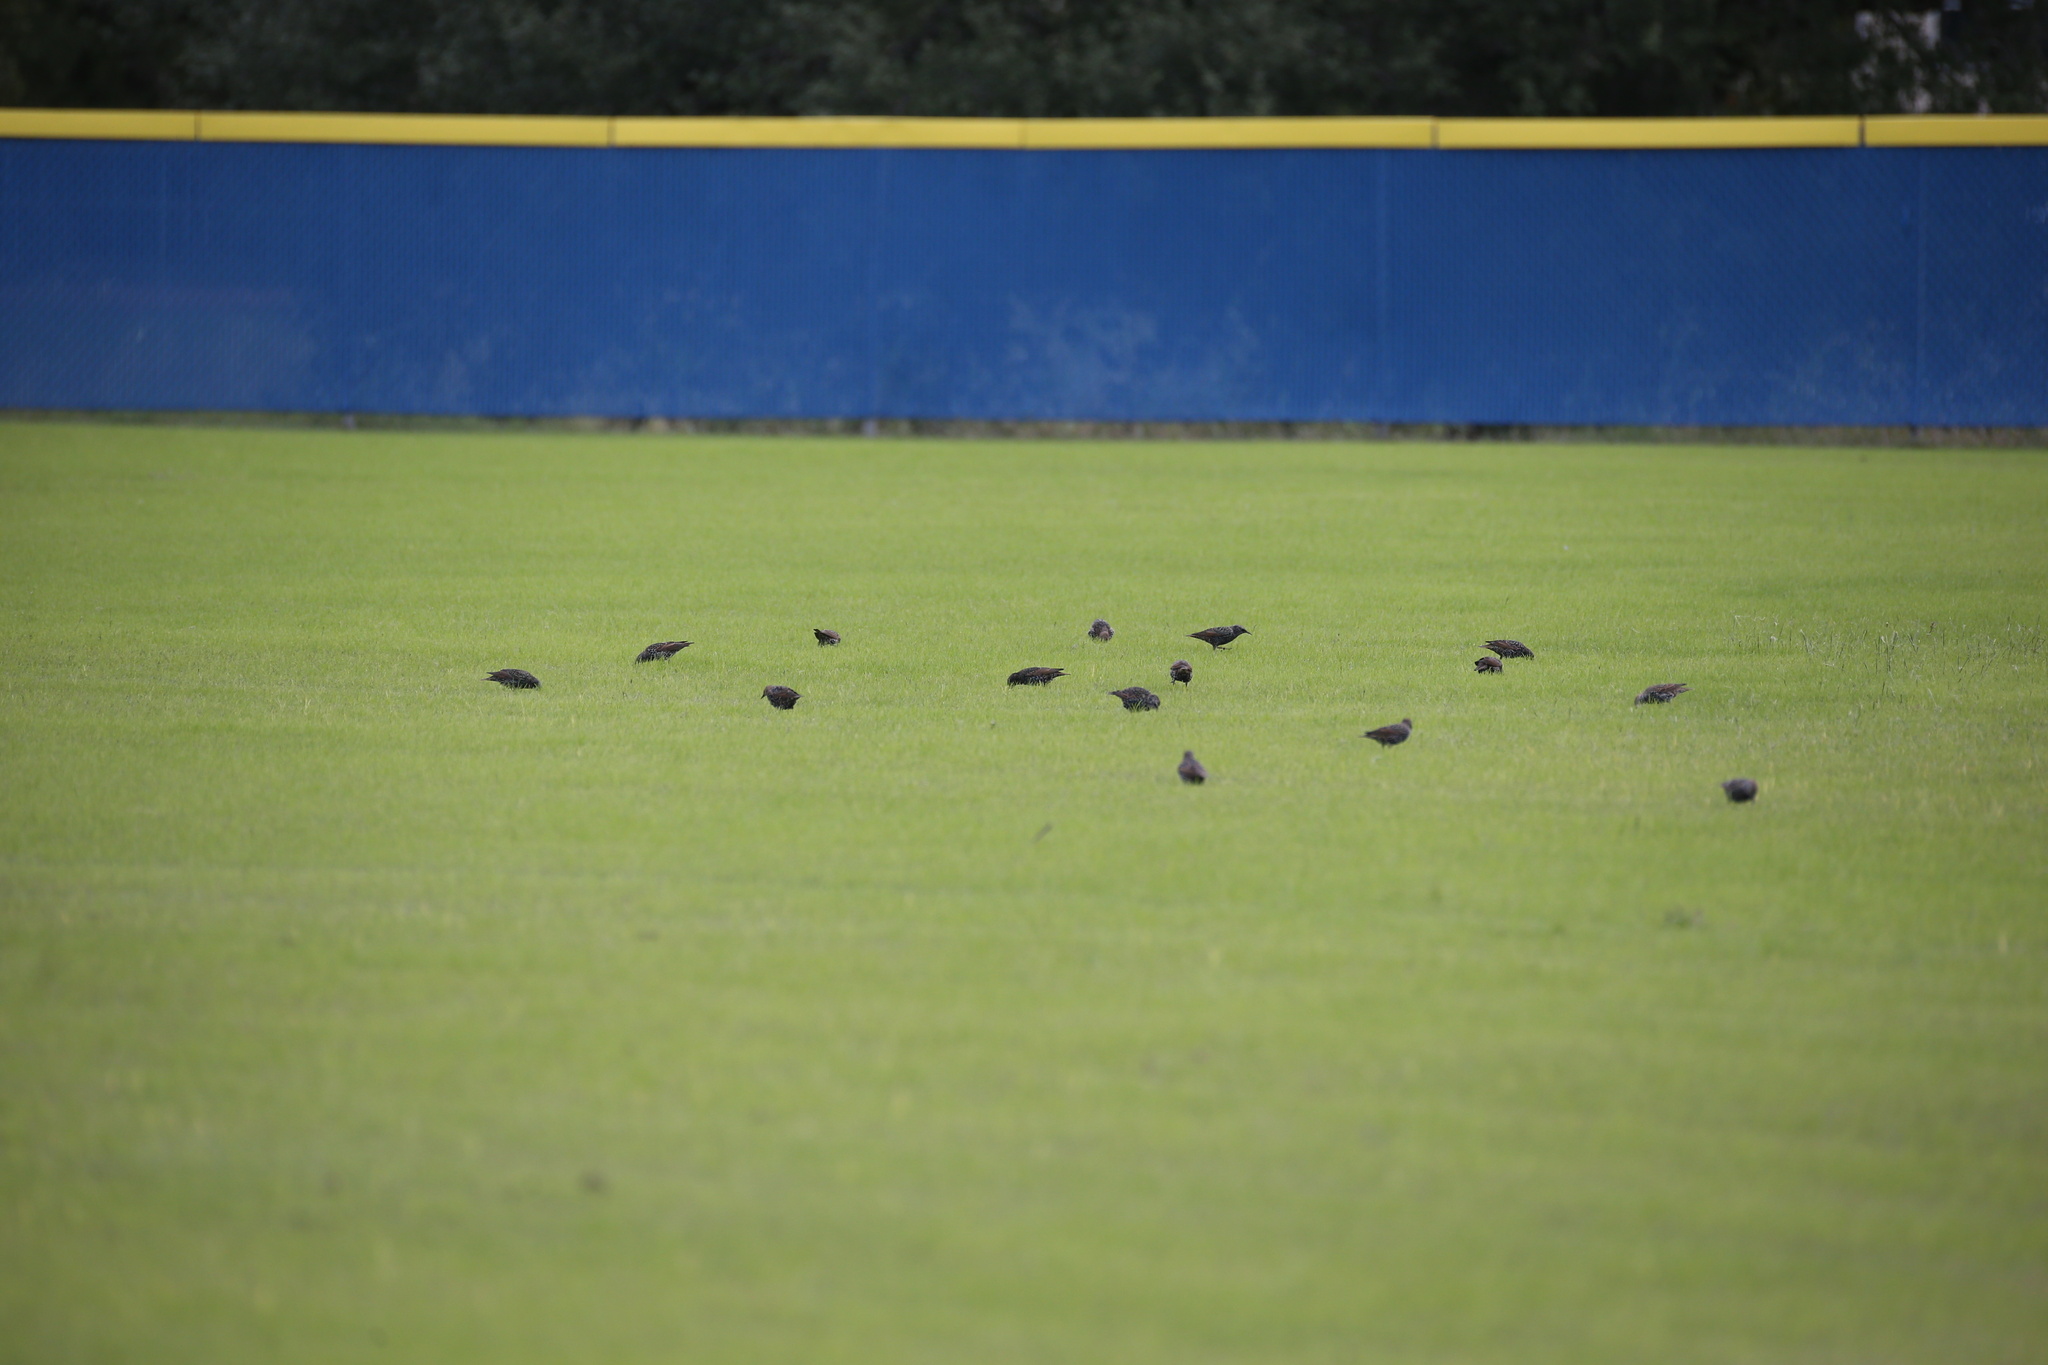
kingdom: Animalia
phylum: Chordata
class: Aves
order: Passeriformes
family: Sturnidae
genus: Sturnus
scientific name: Sturnus vulgaris
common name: Common starling
